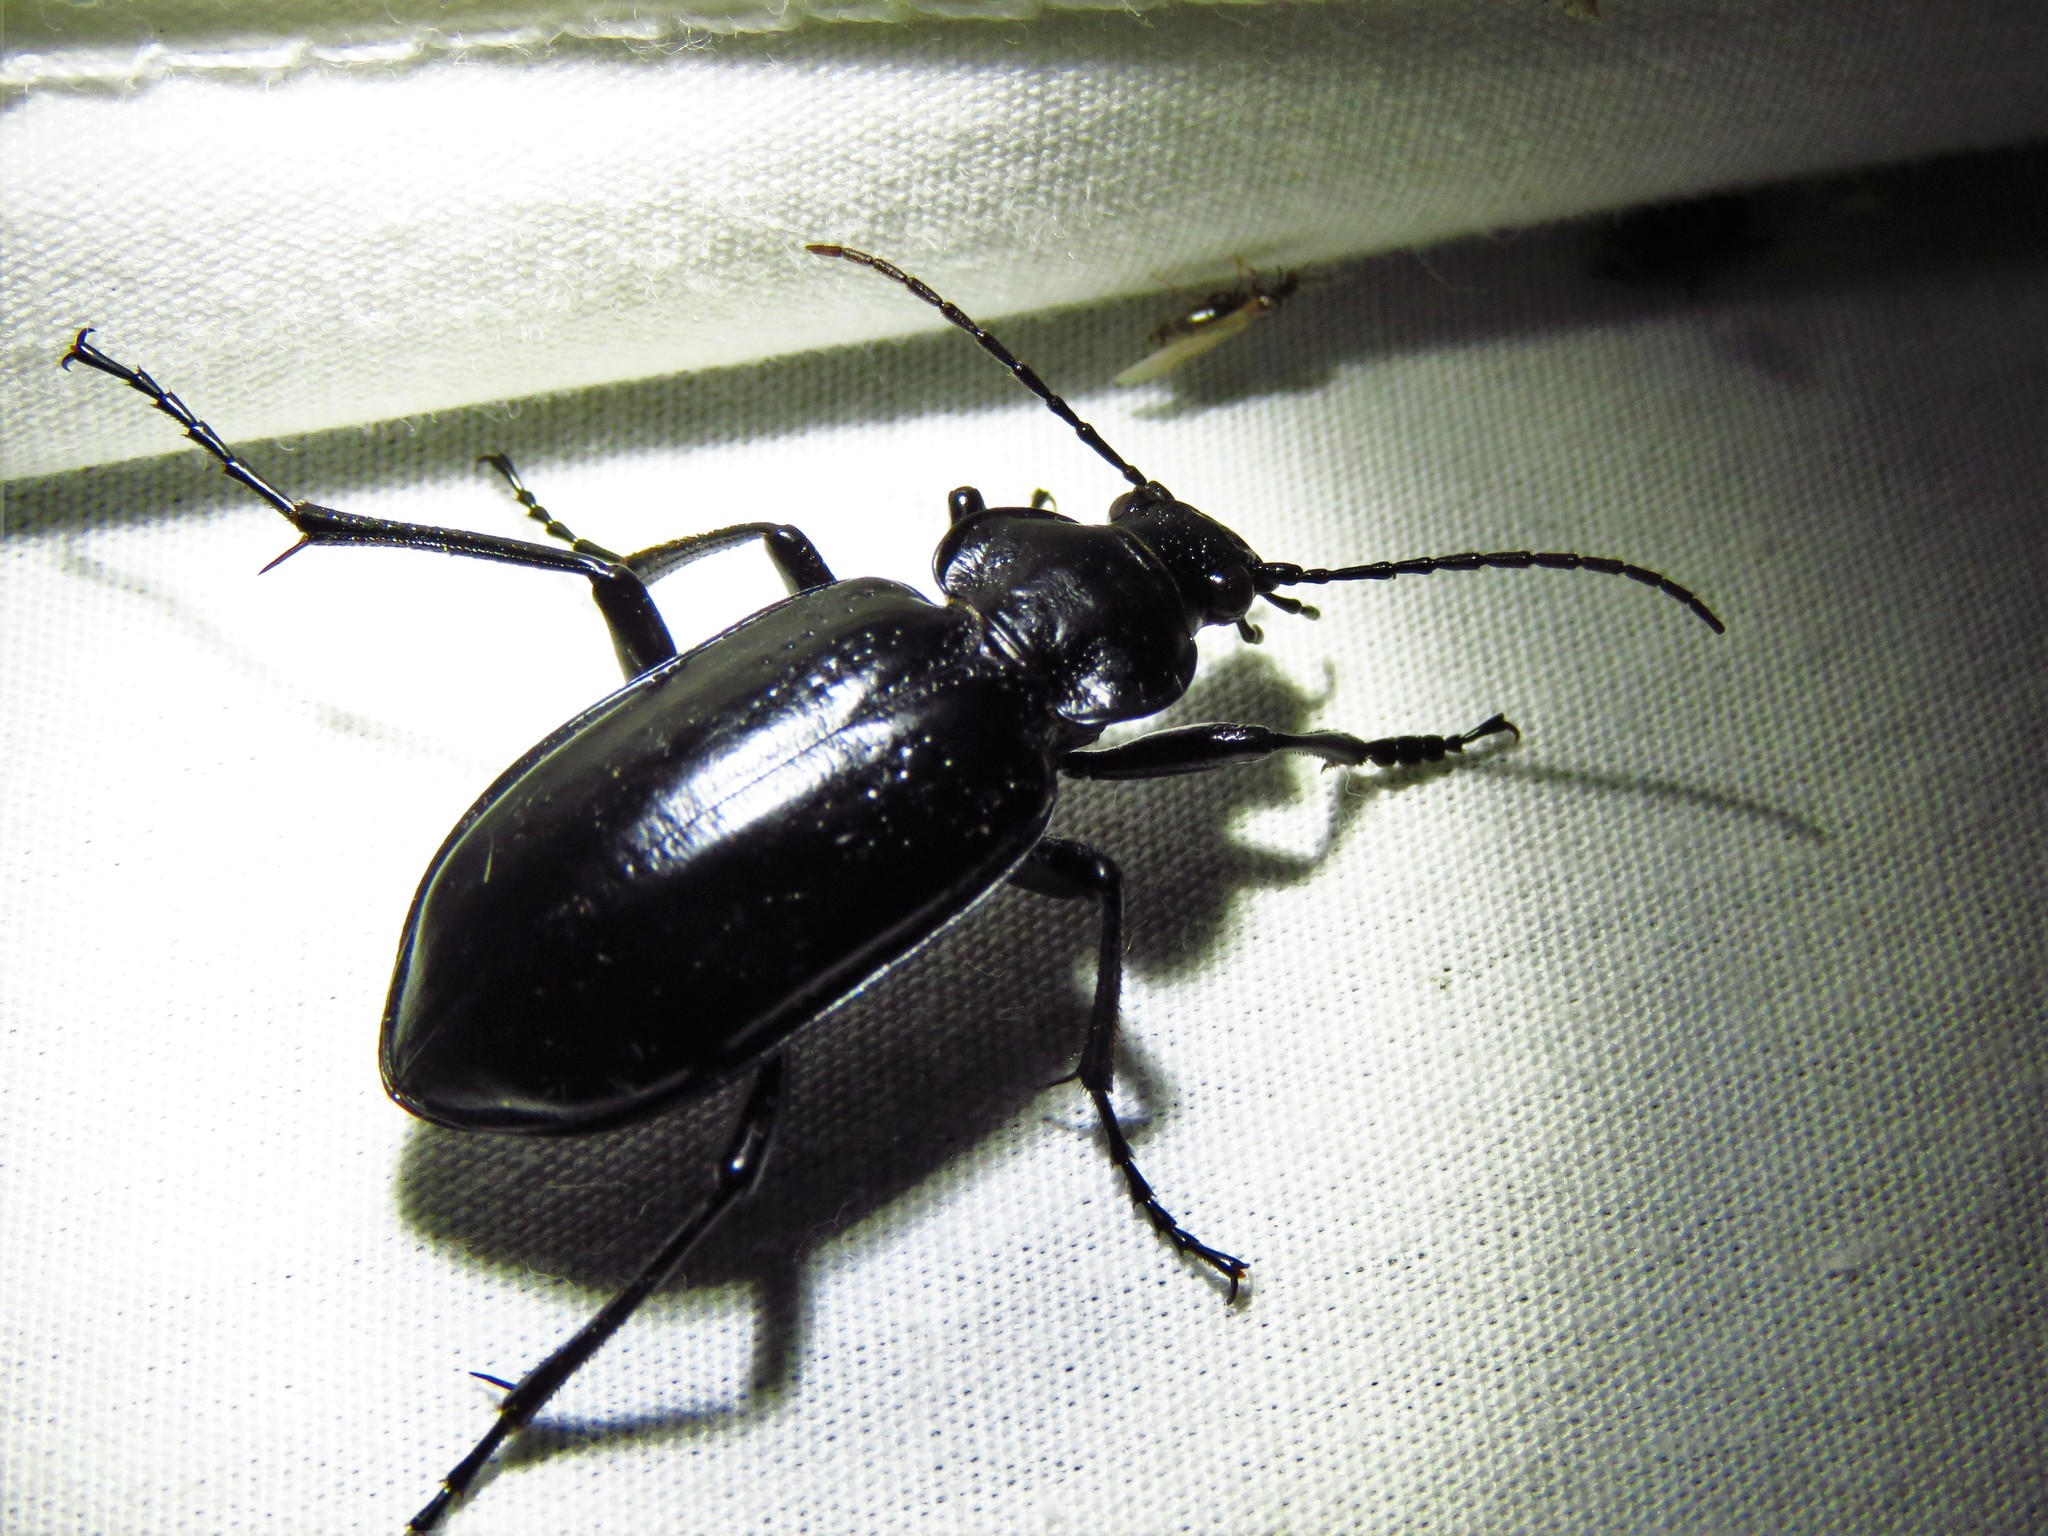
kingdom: Animalia
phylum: Arthropoda
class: Insecta
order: Coleoptera
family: Carabidae
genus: Calosoma
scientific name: Calosoma macrum
